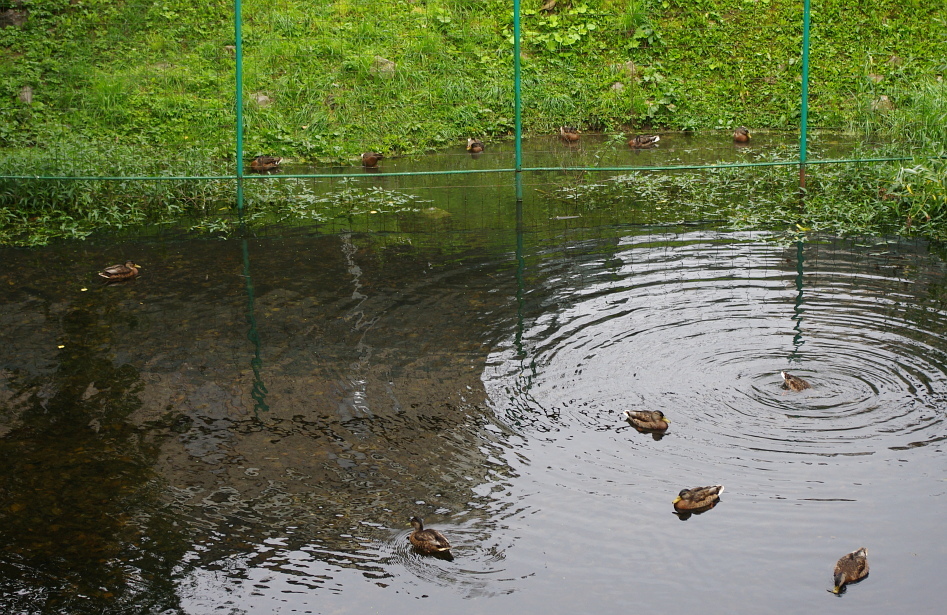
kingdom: Animalia
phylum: Chordata
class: Aves
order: Anseriformes
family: Anatidae
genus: Anas
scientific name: Anas platyrhynchos
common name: Mallard
